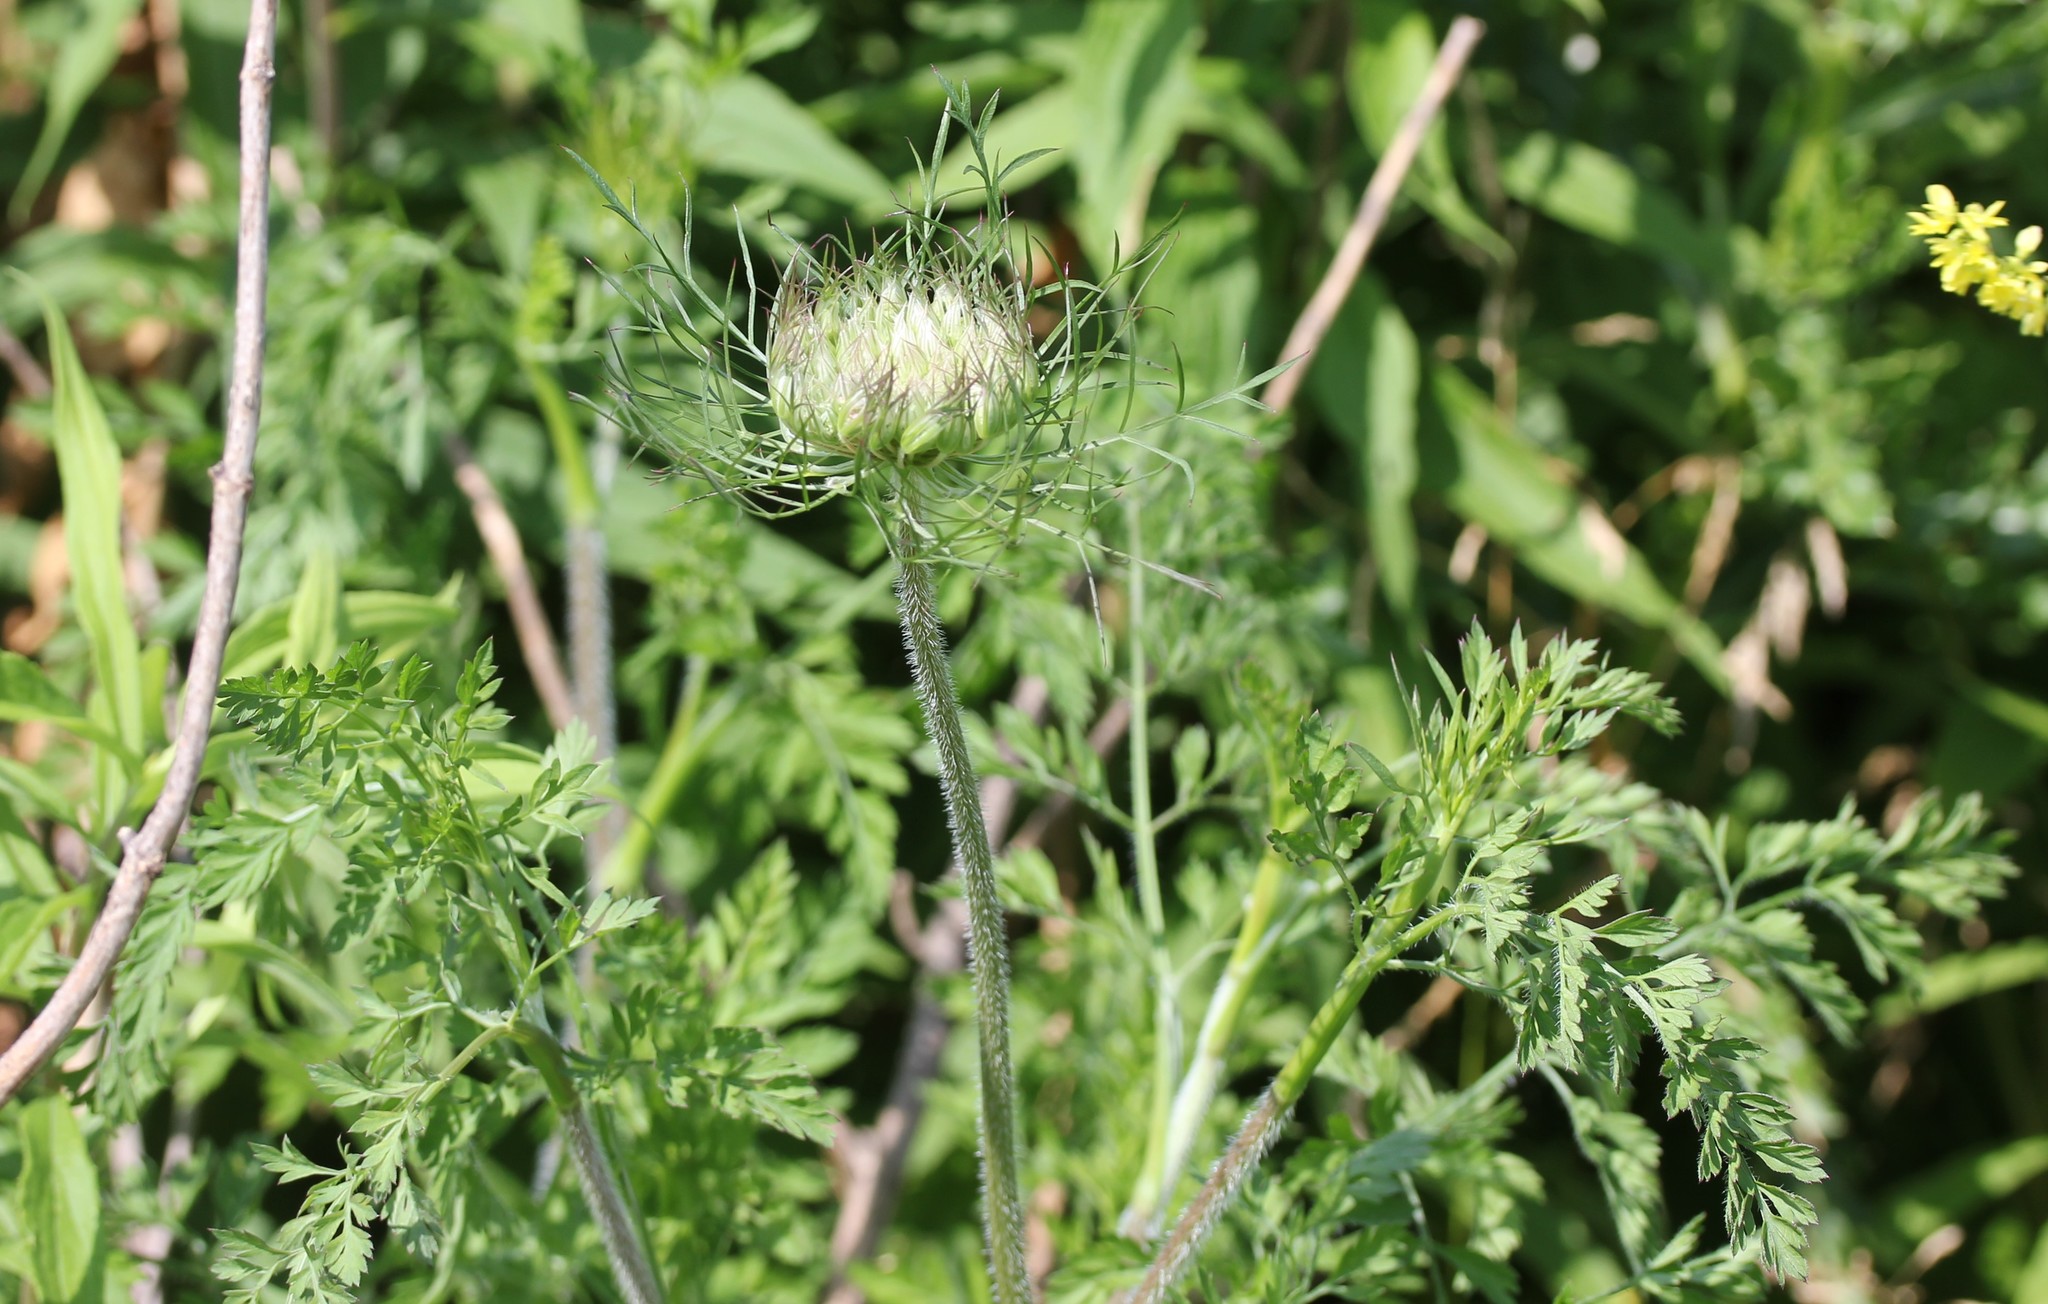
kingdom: Plantae
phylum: Tracheophyta
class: Magnoliopsida
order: Apiales
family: Apiaceae
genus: Daucus
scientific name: Daucus carota
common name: Wild carrot
